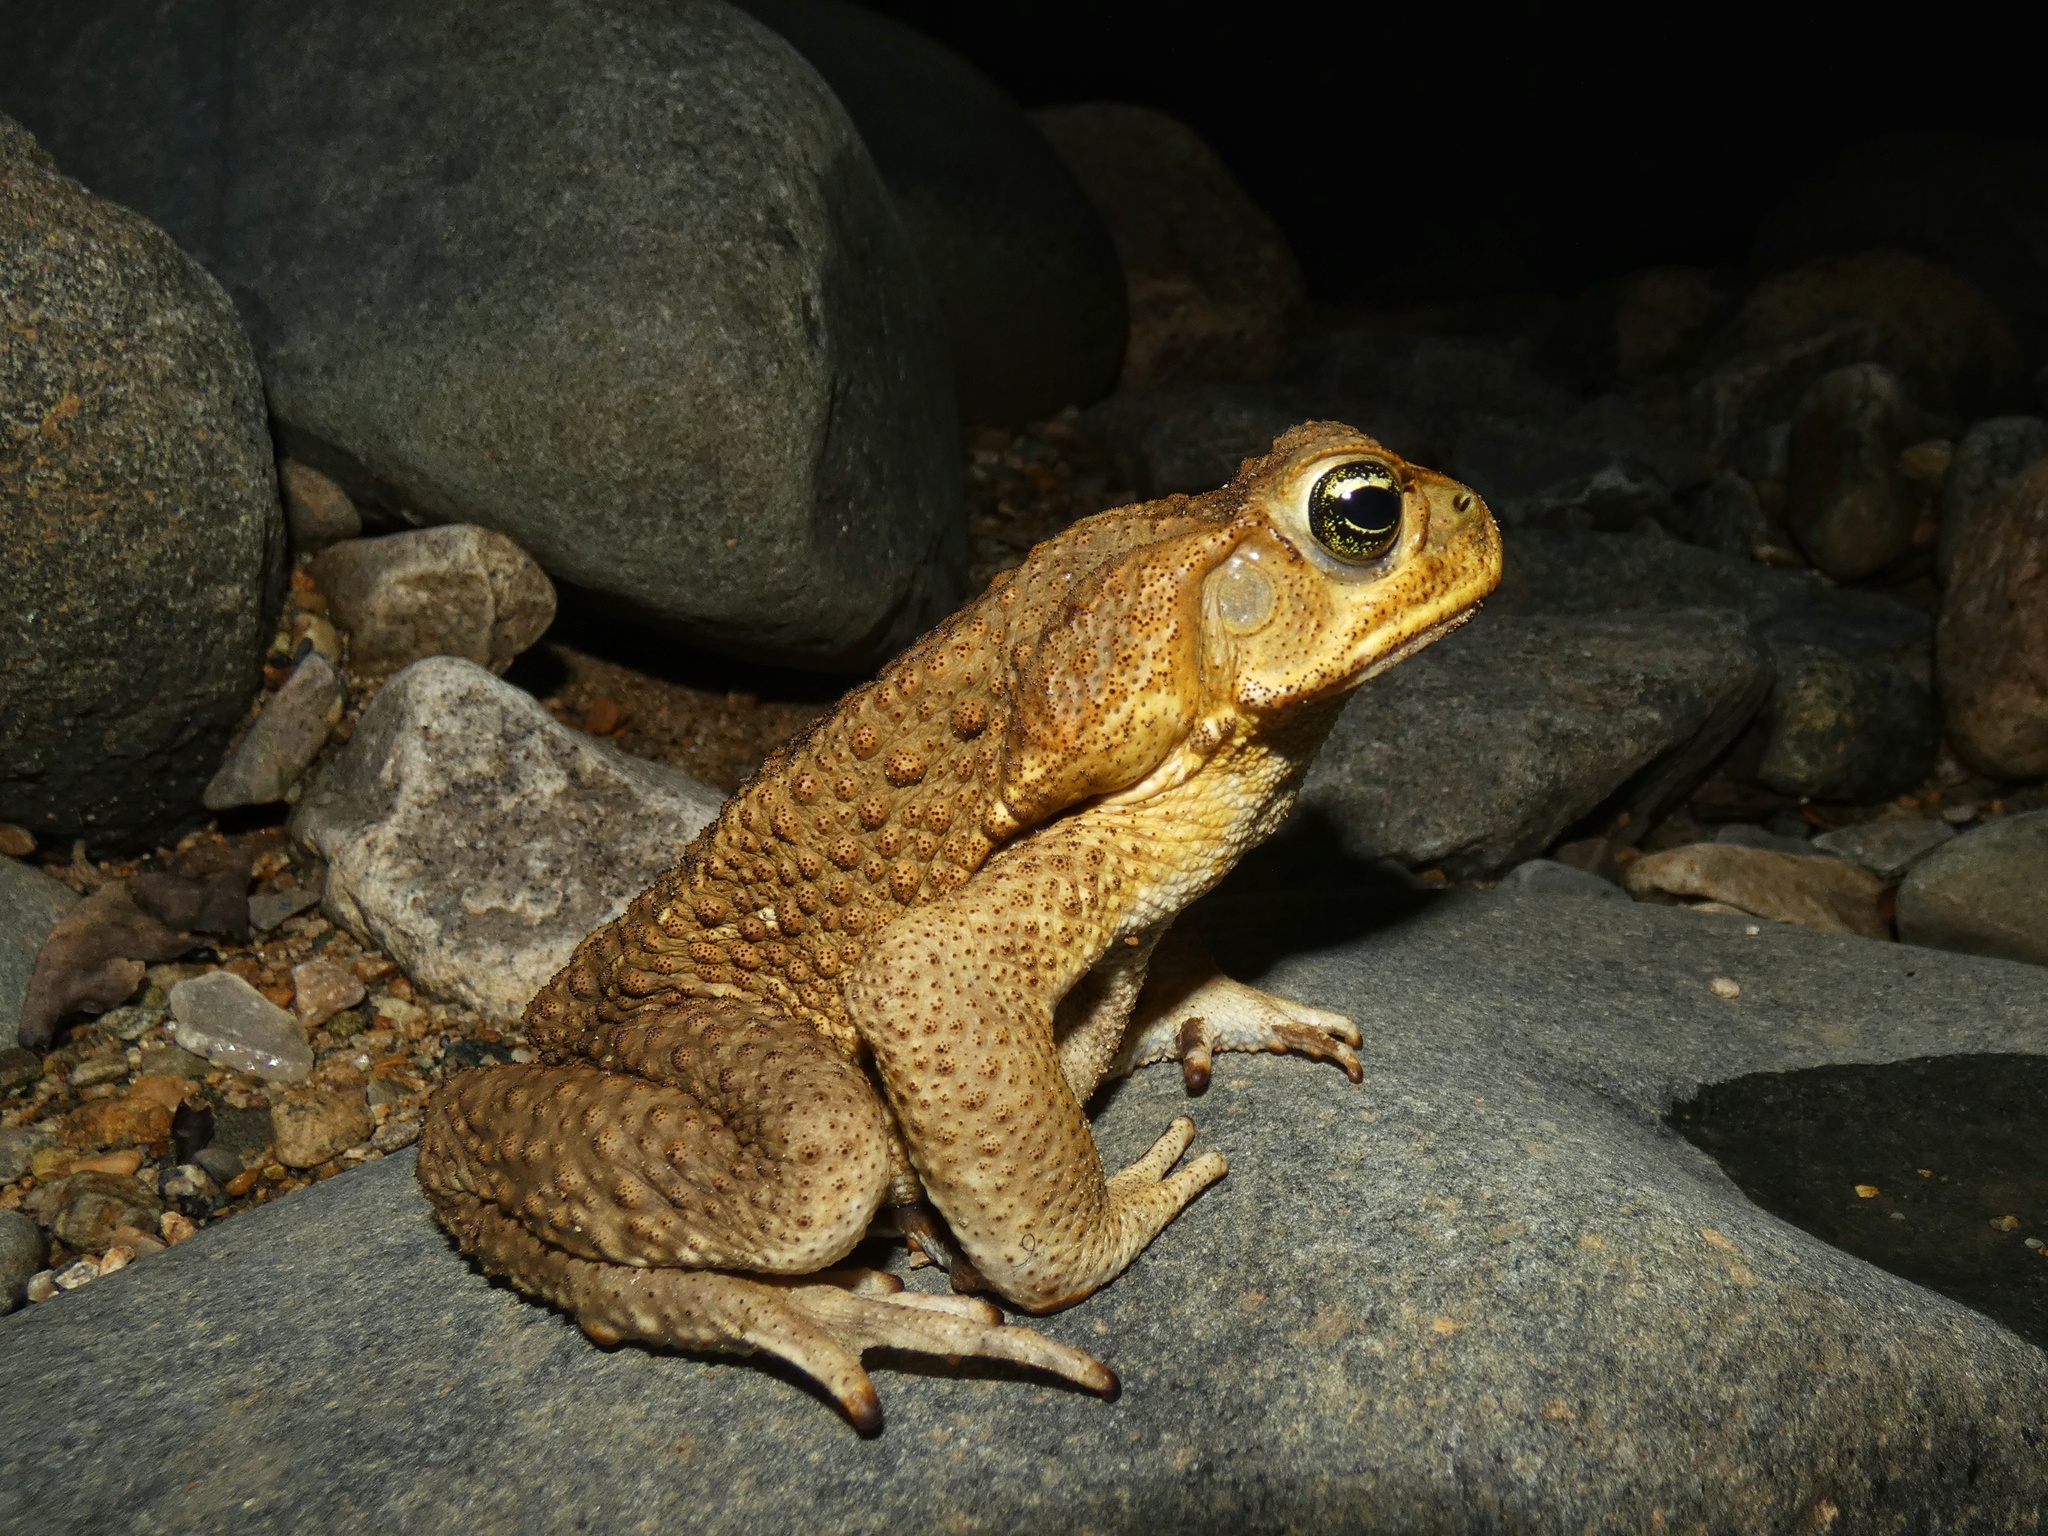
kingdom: Animalia
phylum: Chordata
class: Amphibia
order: Anura
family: Bufonidae
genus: Rhinella
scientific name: Rhinella horribilis
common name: Mesoamerican cane toad
